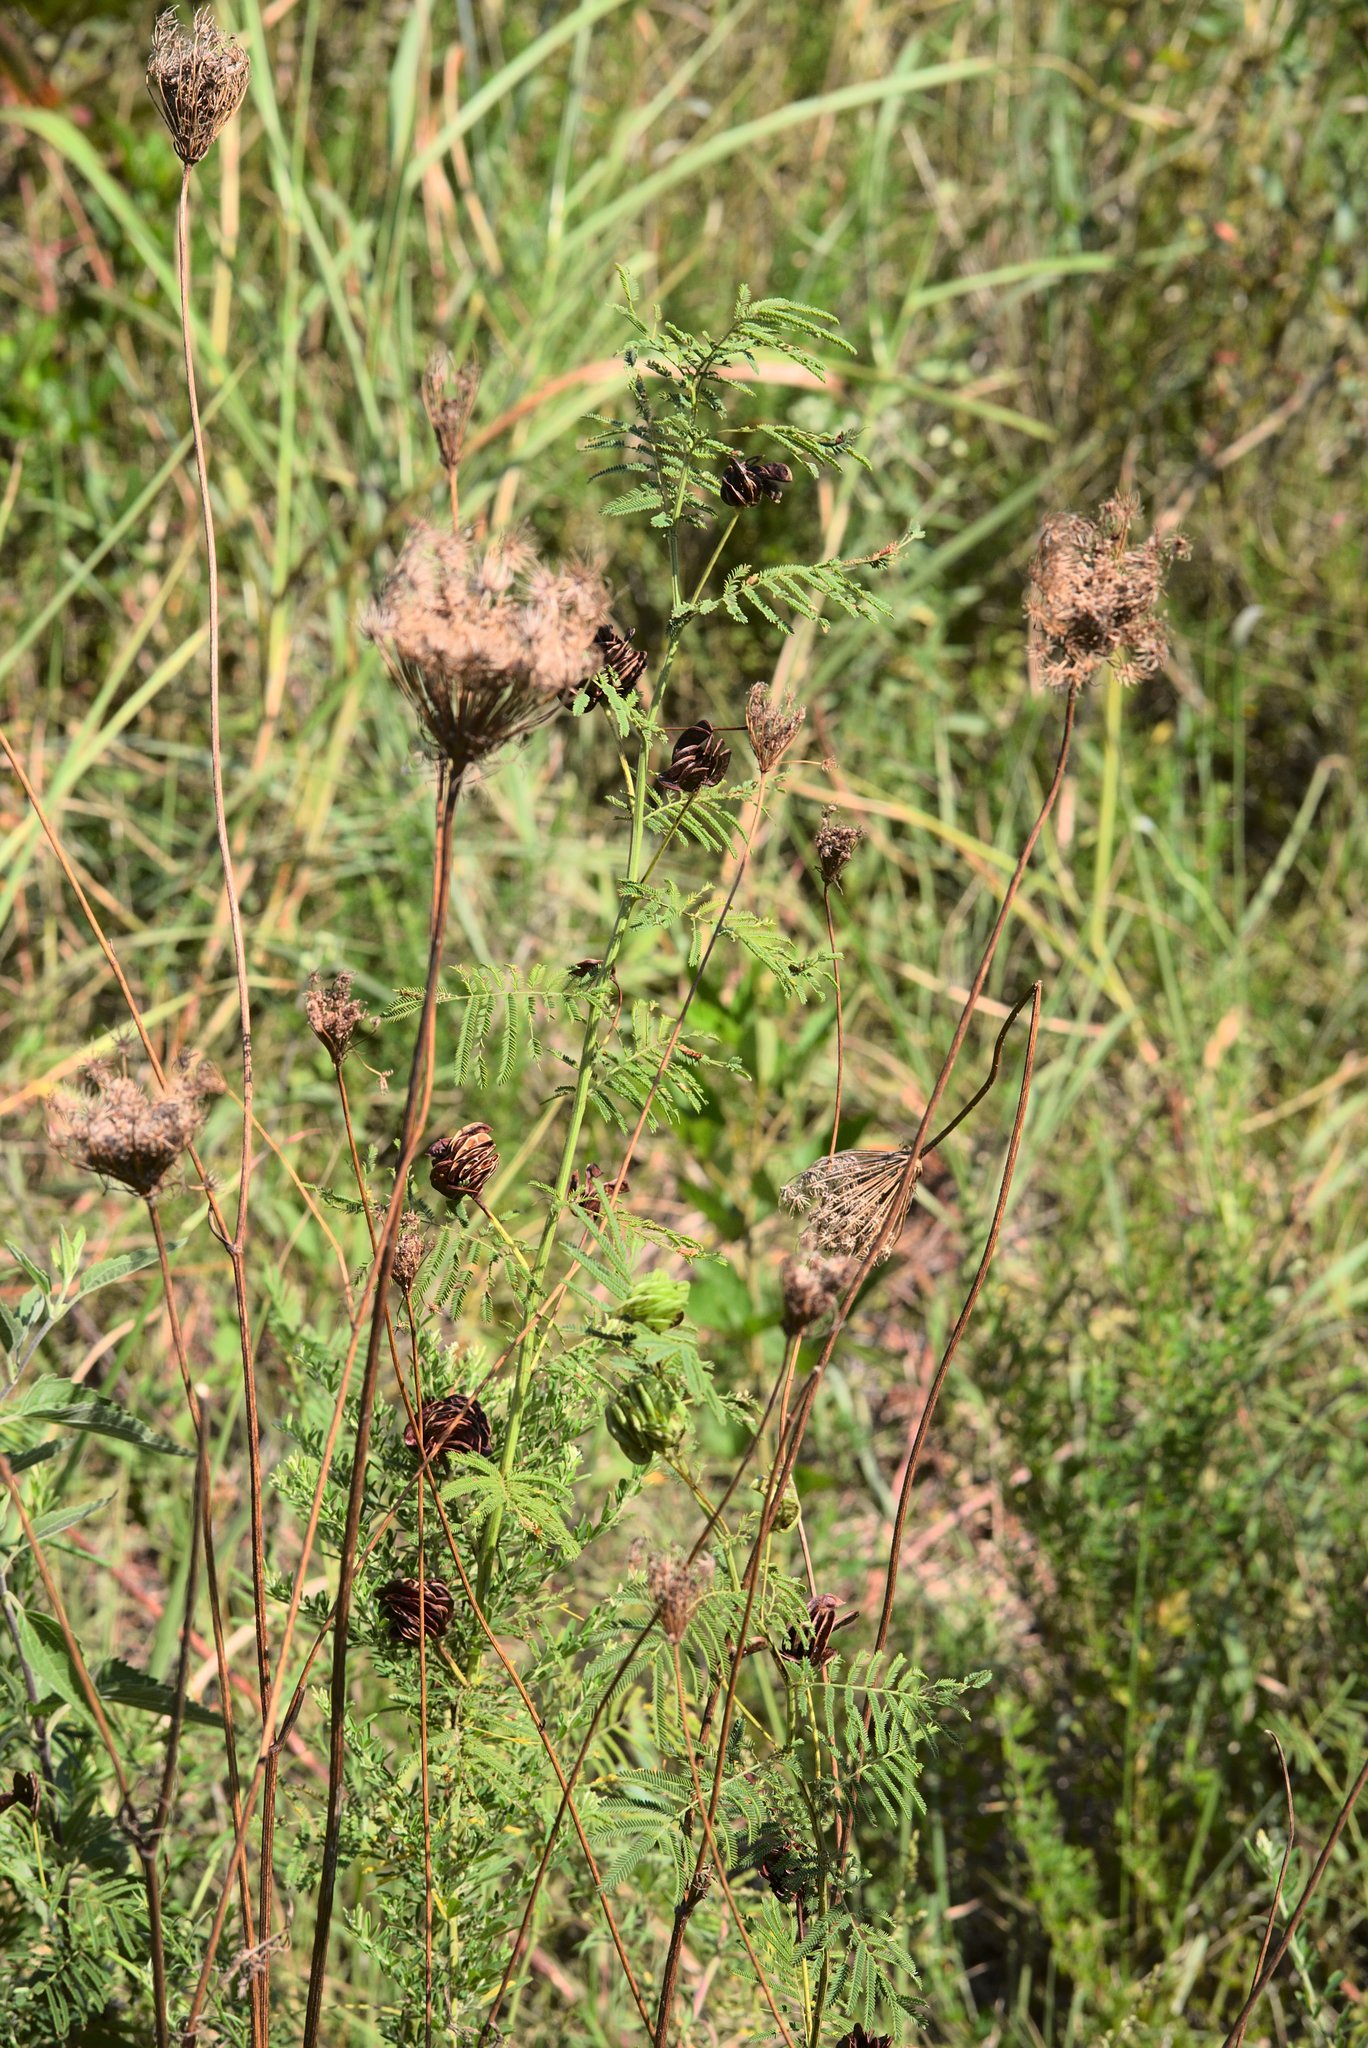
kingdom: Plantae
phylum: Tracheophyta
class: Magnoliopsida
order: Apiales
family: Apiaceae
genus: Daucus
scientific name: Daucus carota
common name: Wild carrot
